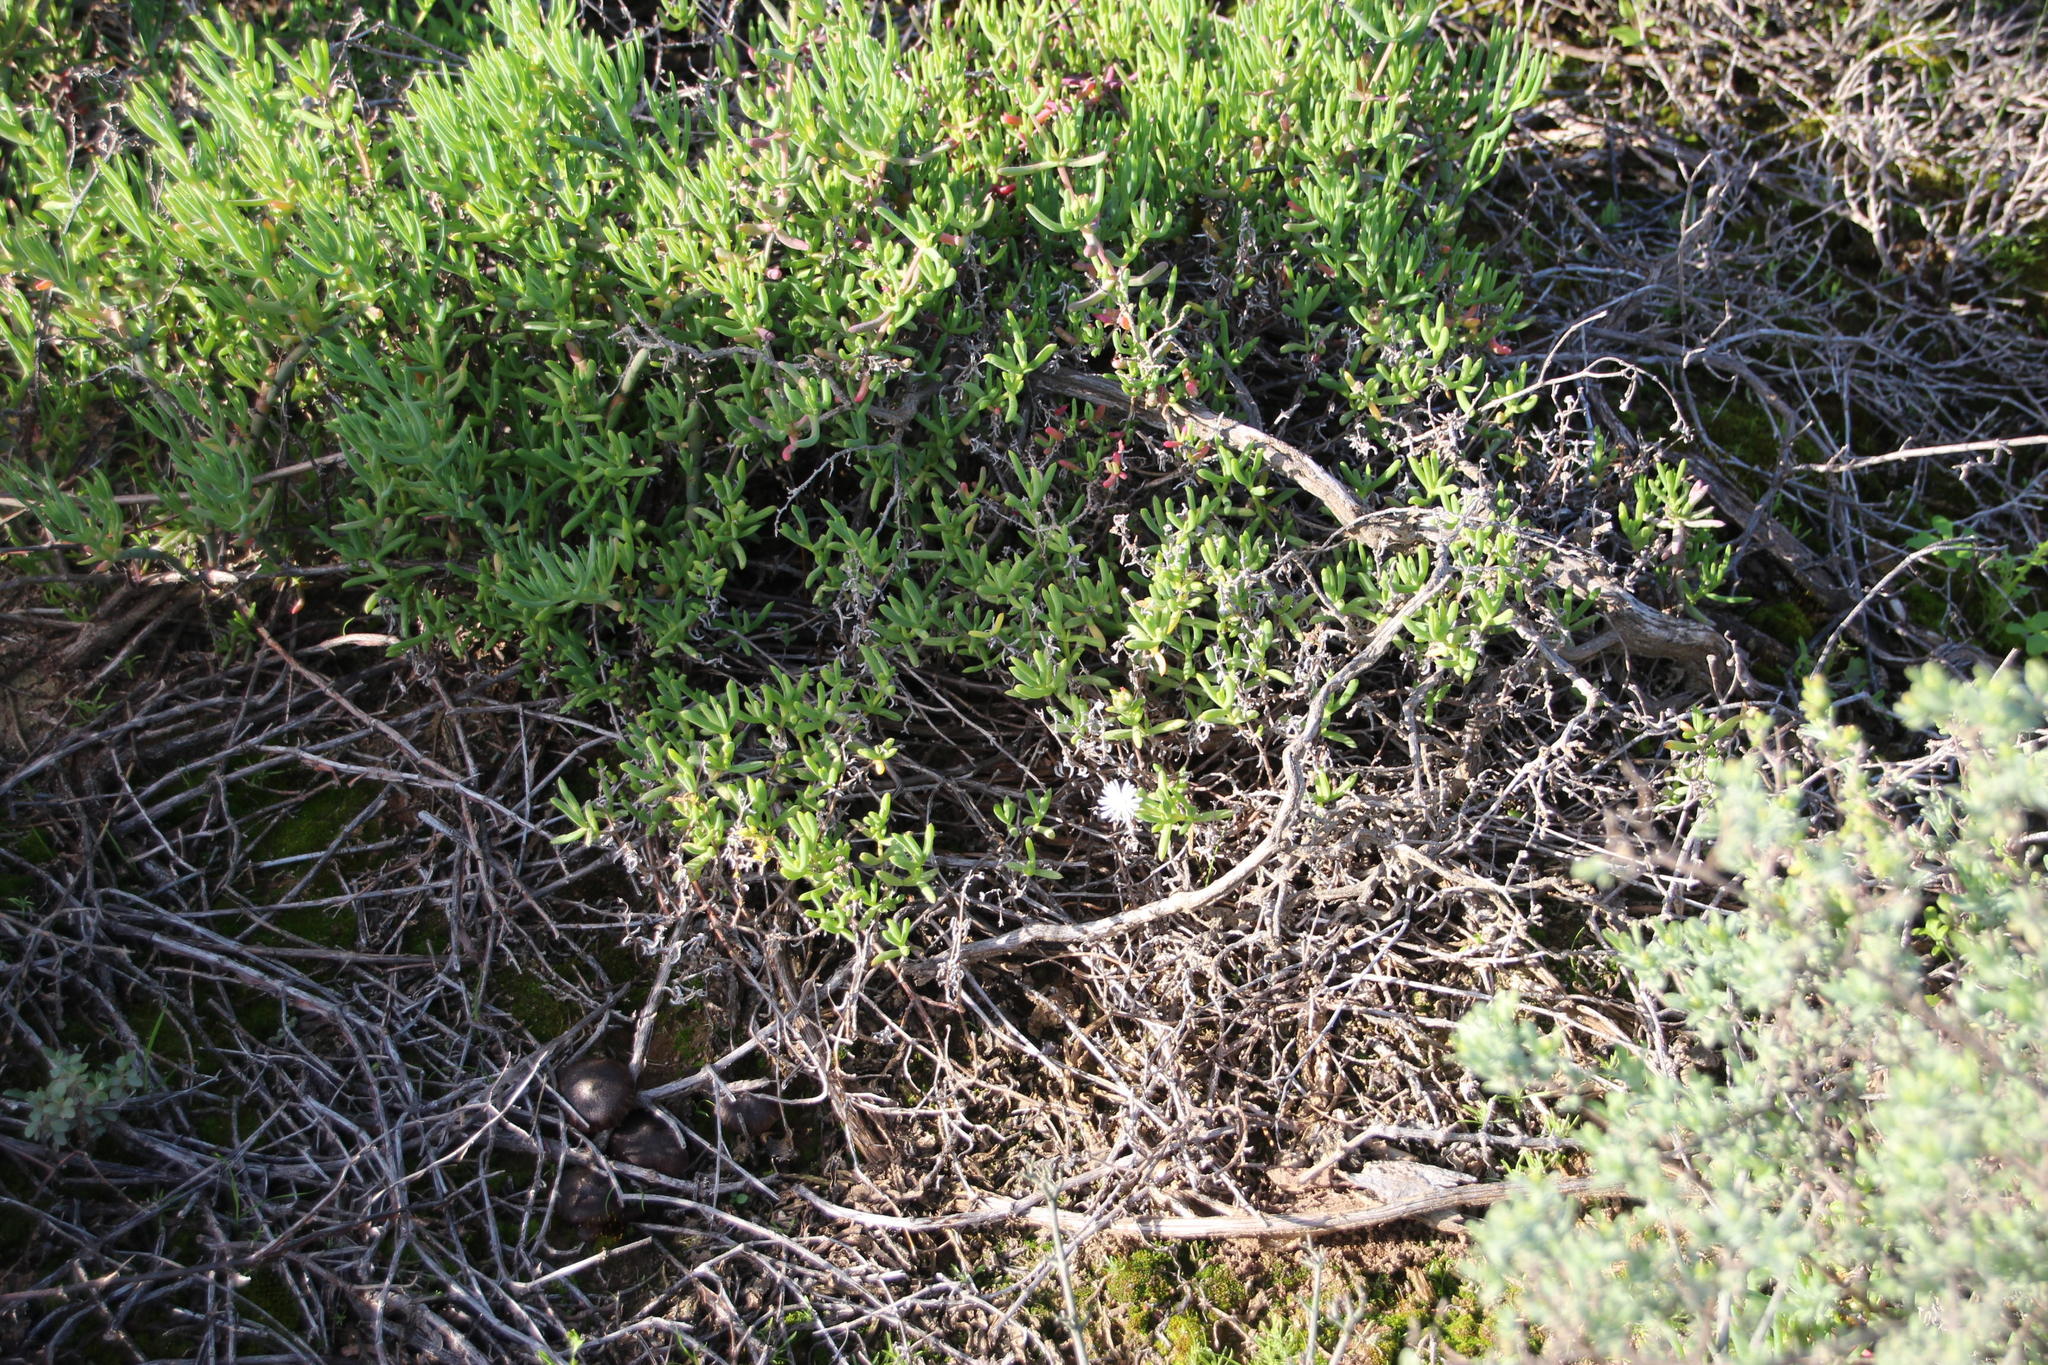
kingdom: Plantae
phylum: Tracheophyta
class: Magnoliopsida
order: Caryophyllales
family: Aizoaceae
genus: Delosperma
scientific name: Delosperma subincanum
